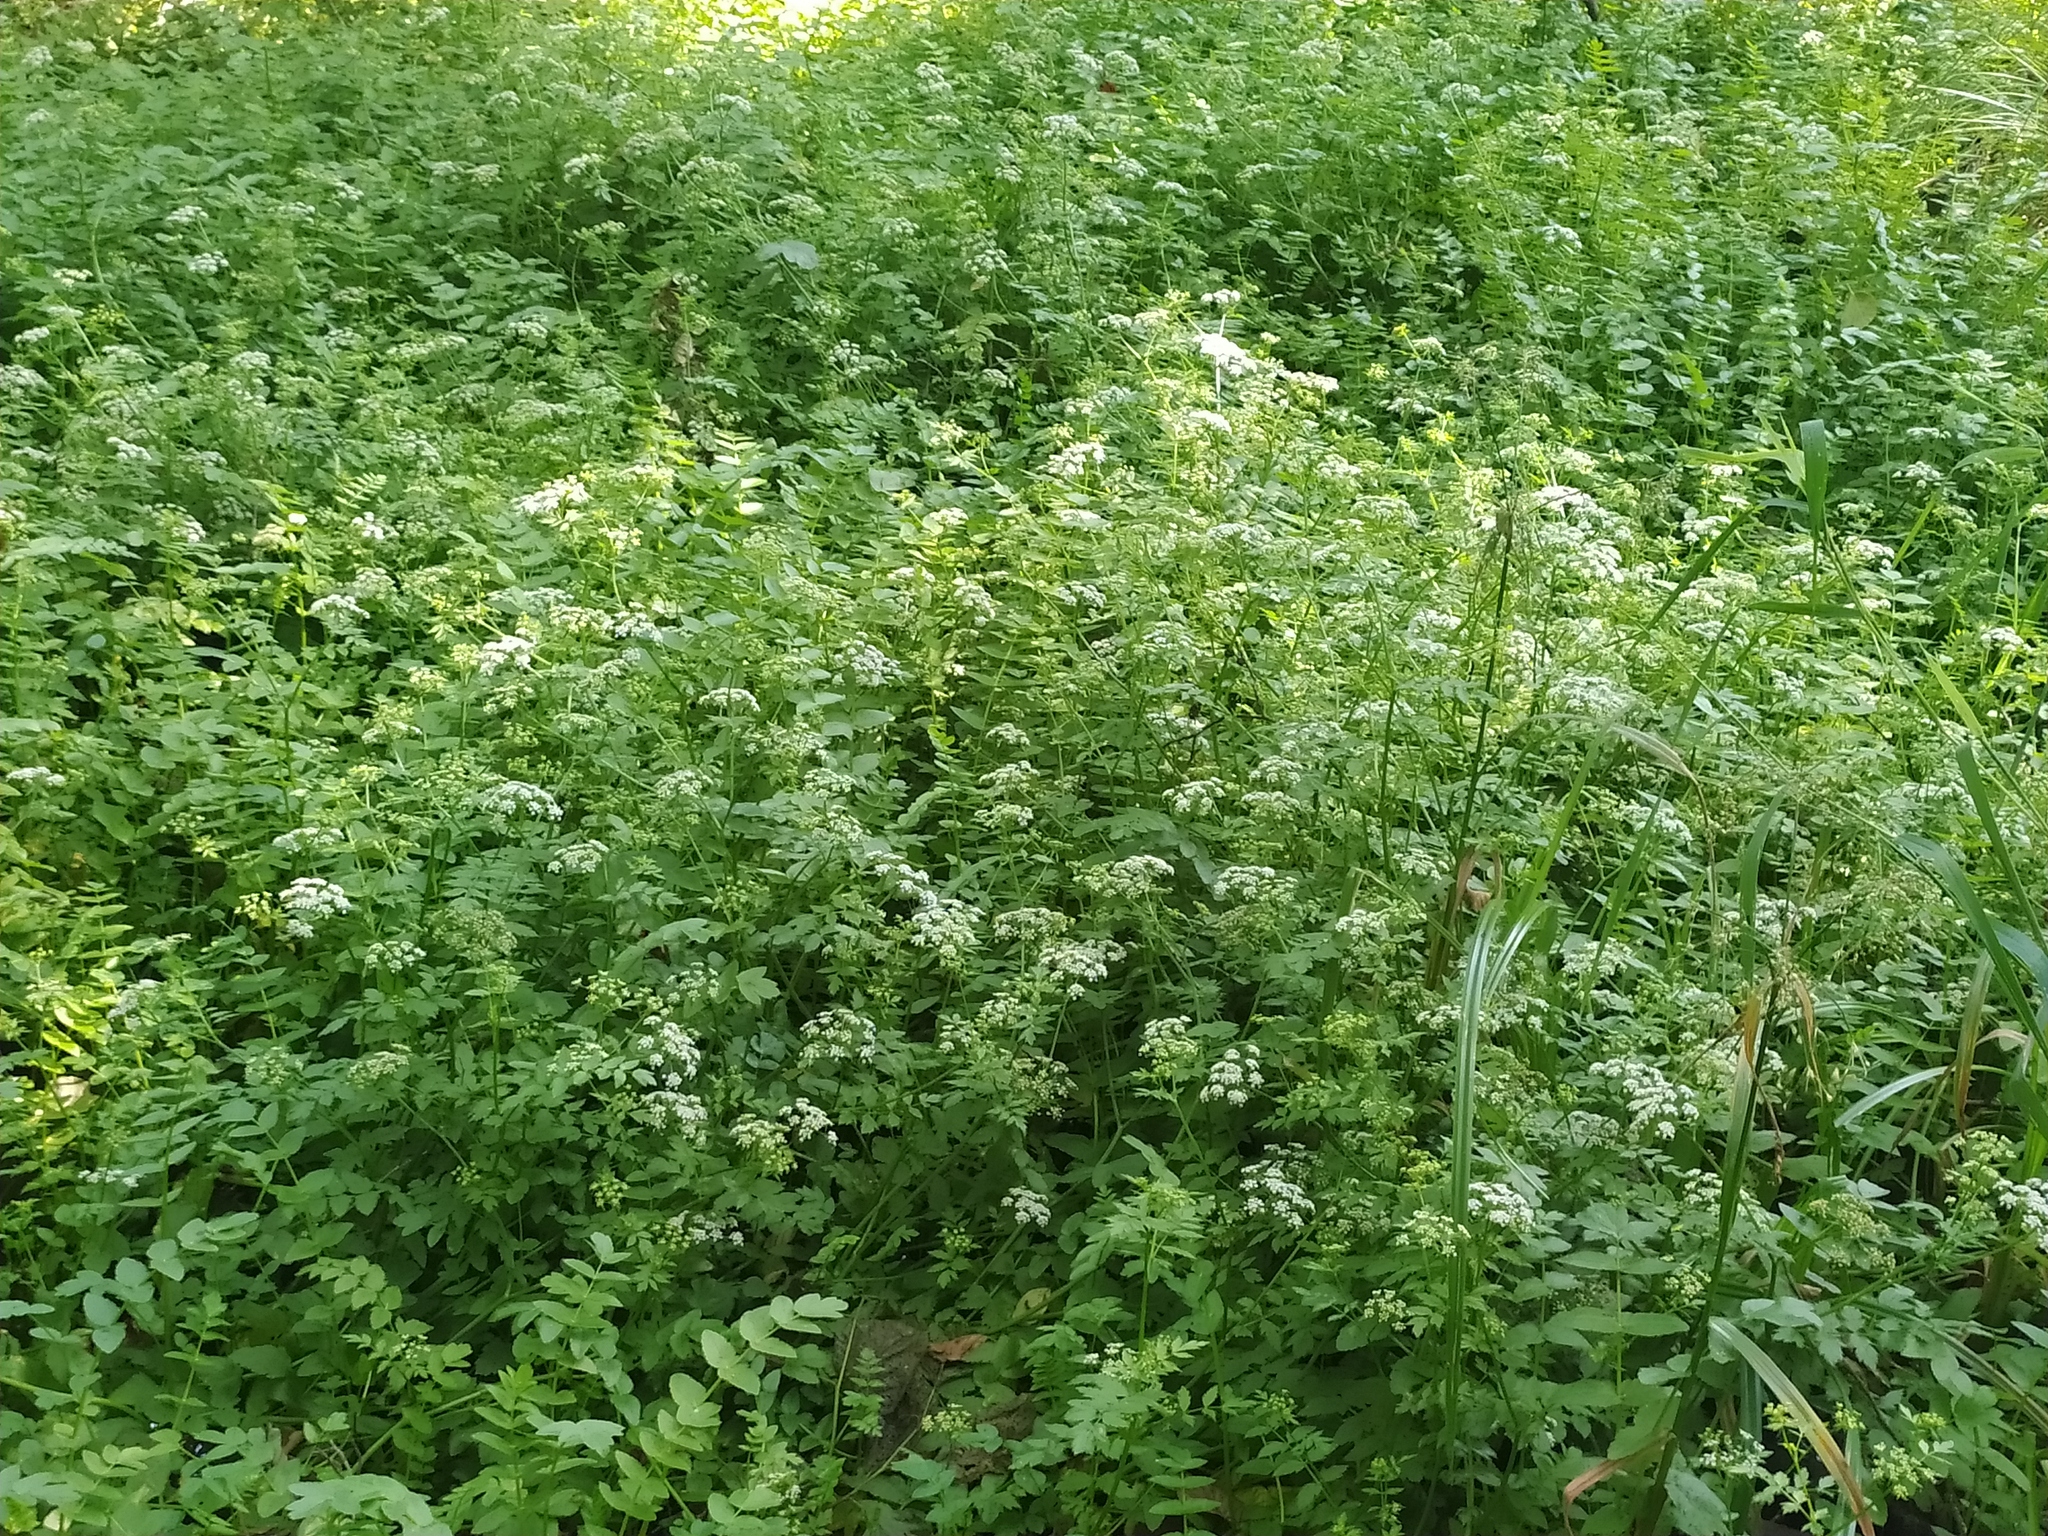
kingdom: Plantae
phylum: Tracheophyta
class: Magnoliopsida
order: Apiales
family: Apiaceae
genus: Berula
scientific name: Berula erecta
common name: Lesser water-parsnip
